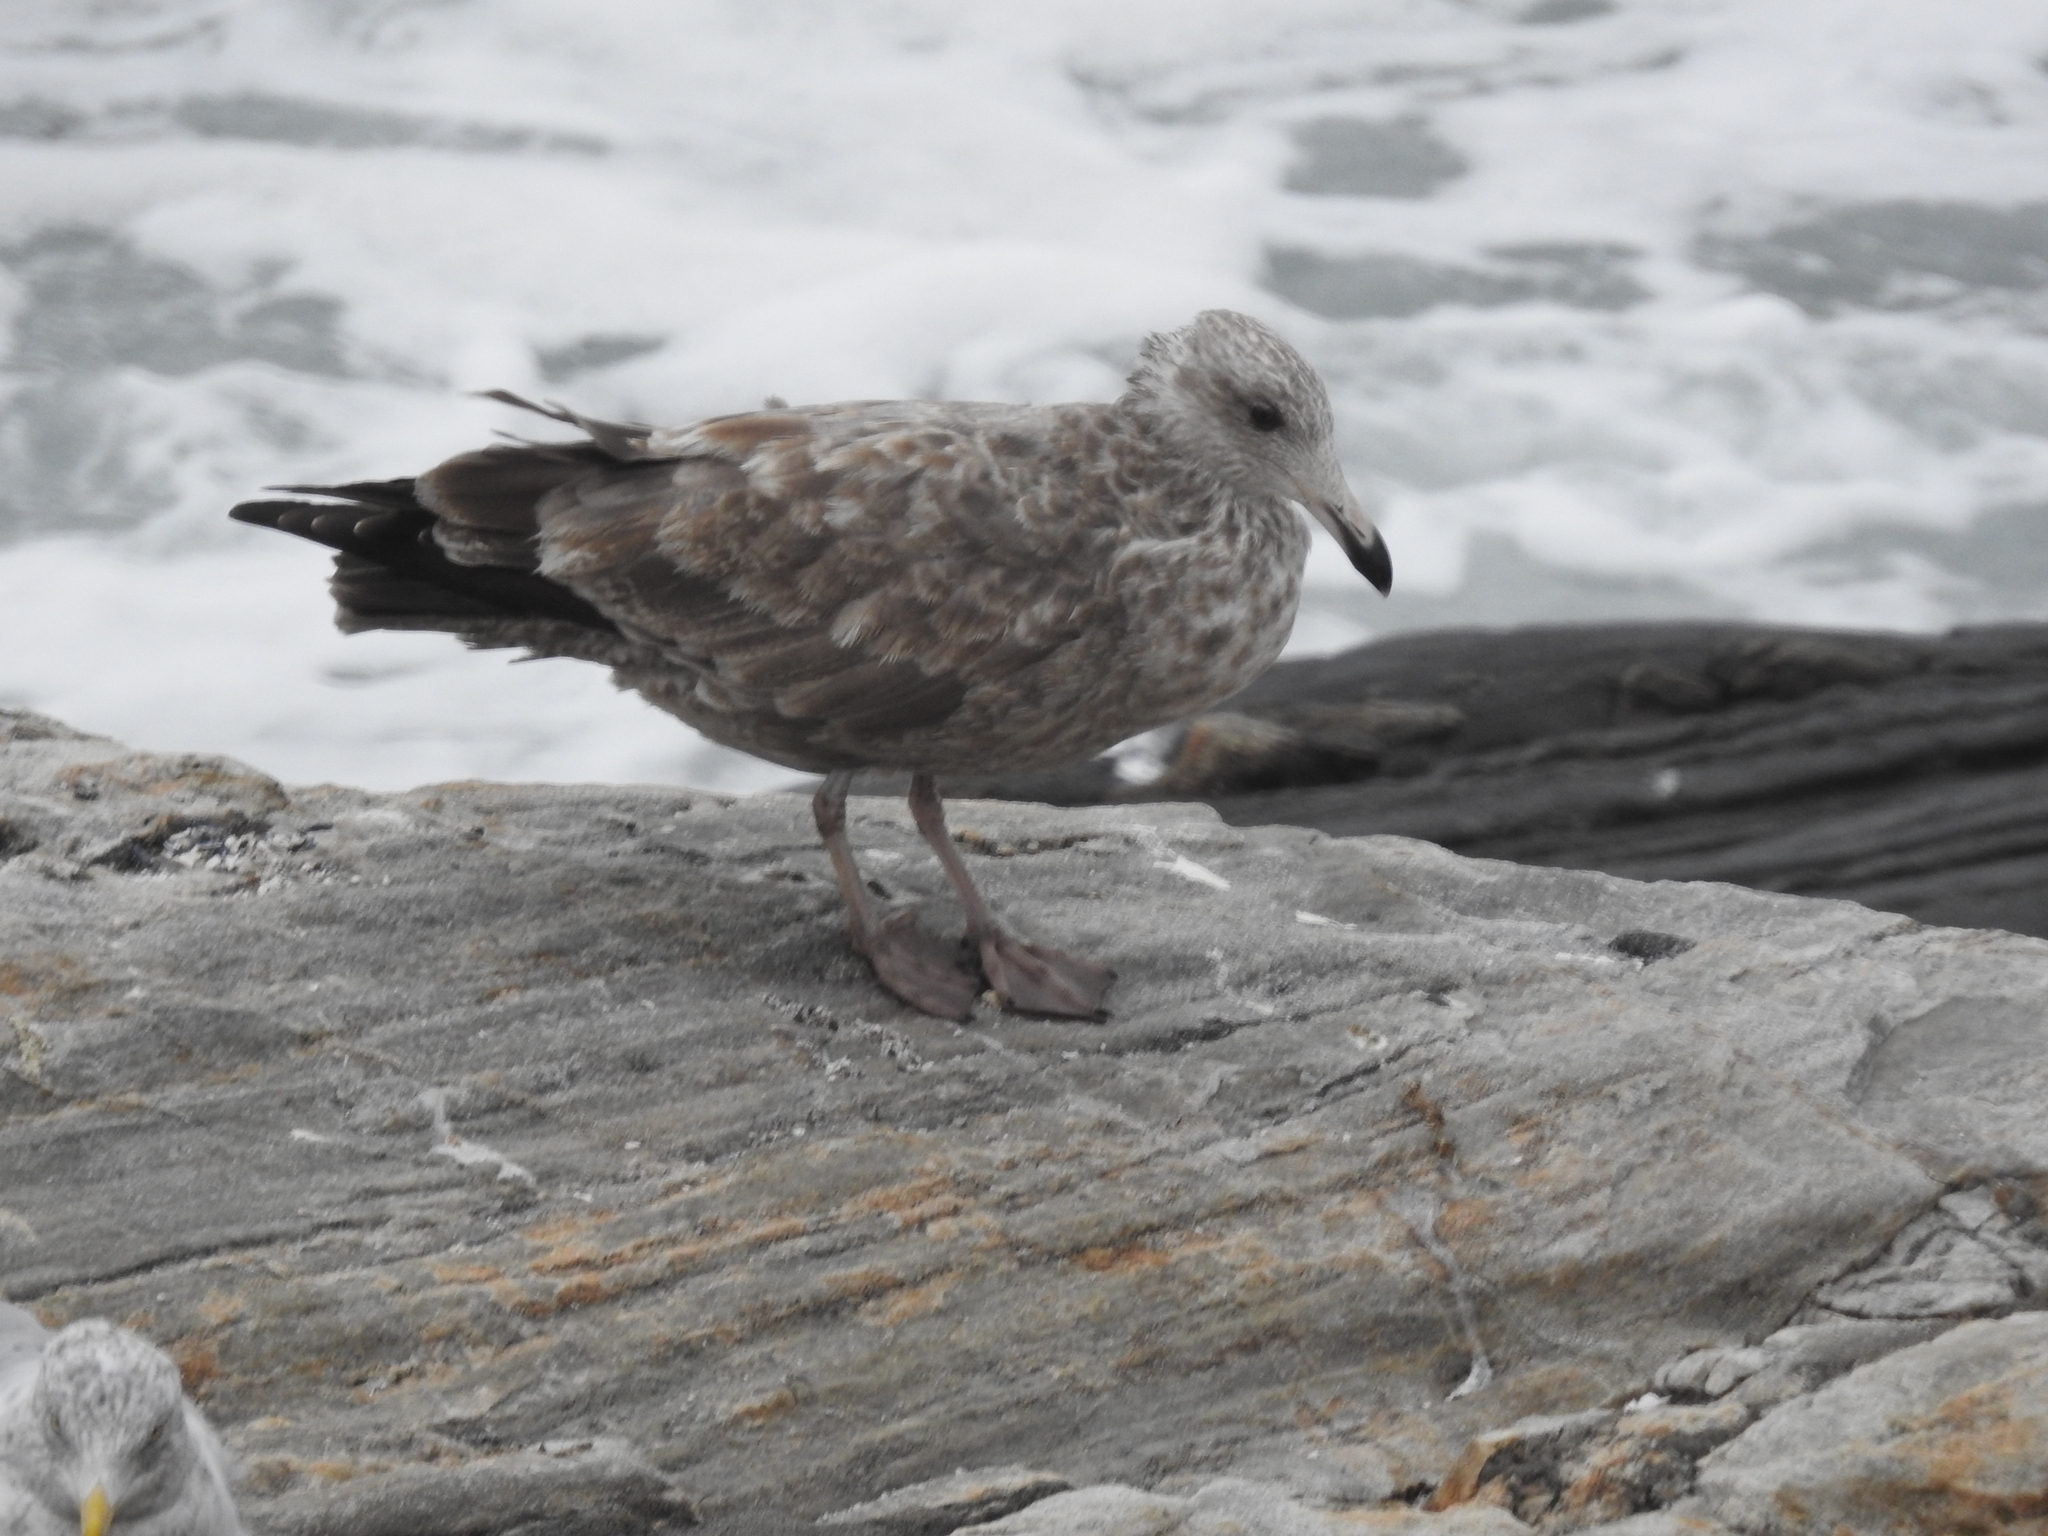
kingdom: Animalia
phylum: Chordata
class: Aves
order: Charadriiformes
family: Laridae
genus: Larus
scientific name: Larus argentatus
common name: Herring gull
